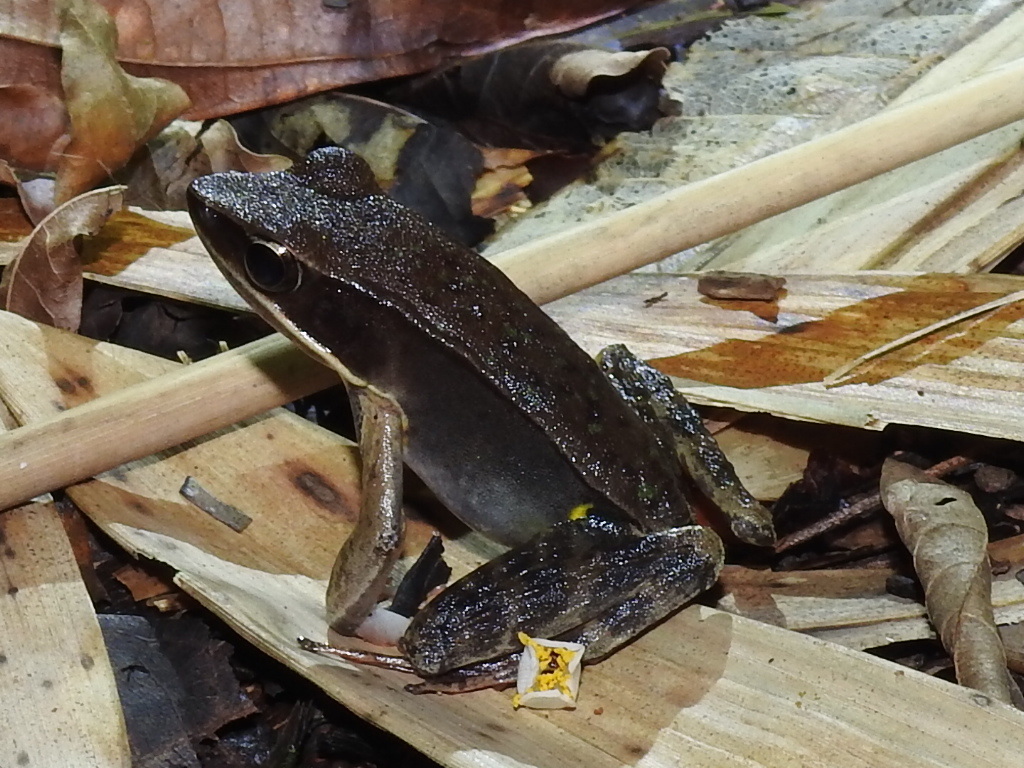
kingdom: Animalia
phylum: Chordata
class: Amphibia
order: Anura
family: Ranidae
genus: Lithobates
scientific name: Lithobates warszewitschii
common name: Warszewitsch's frog
